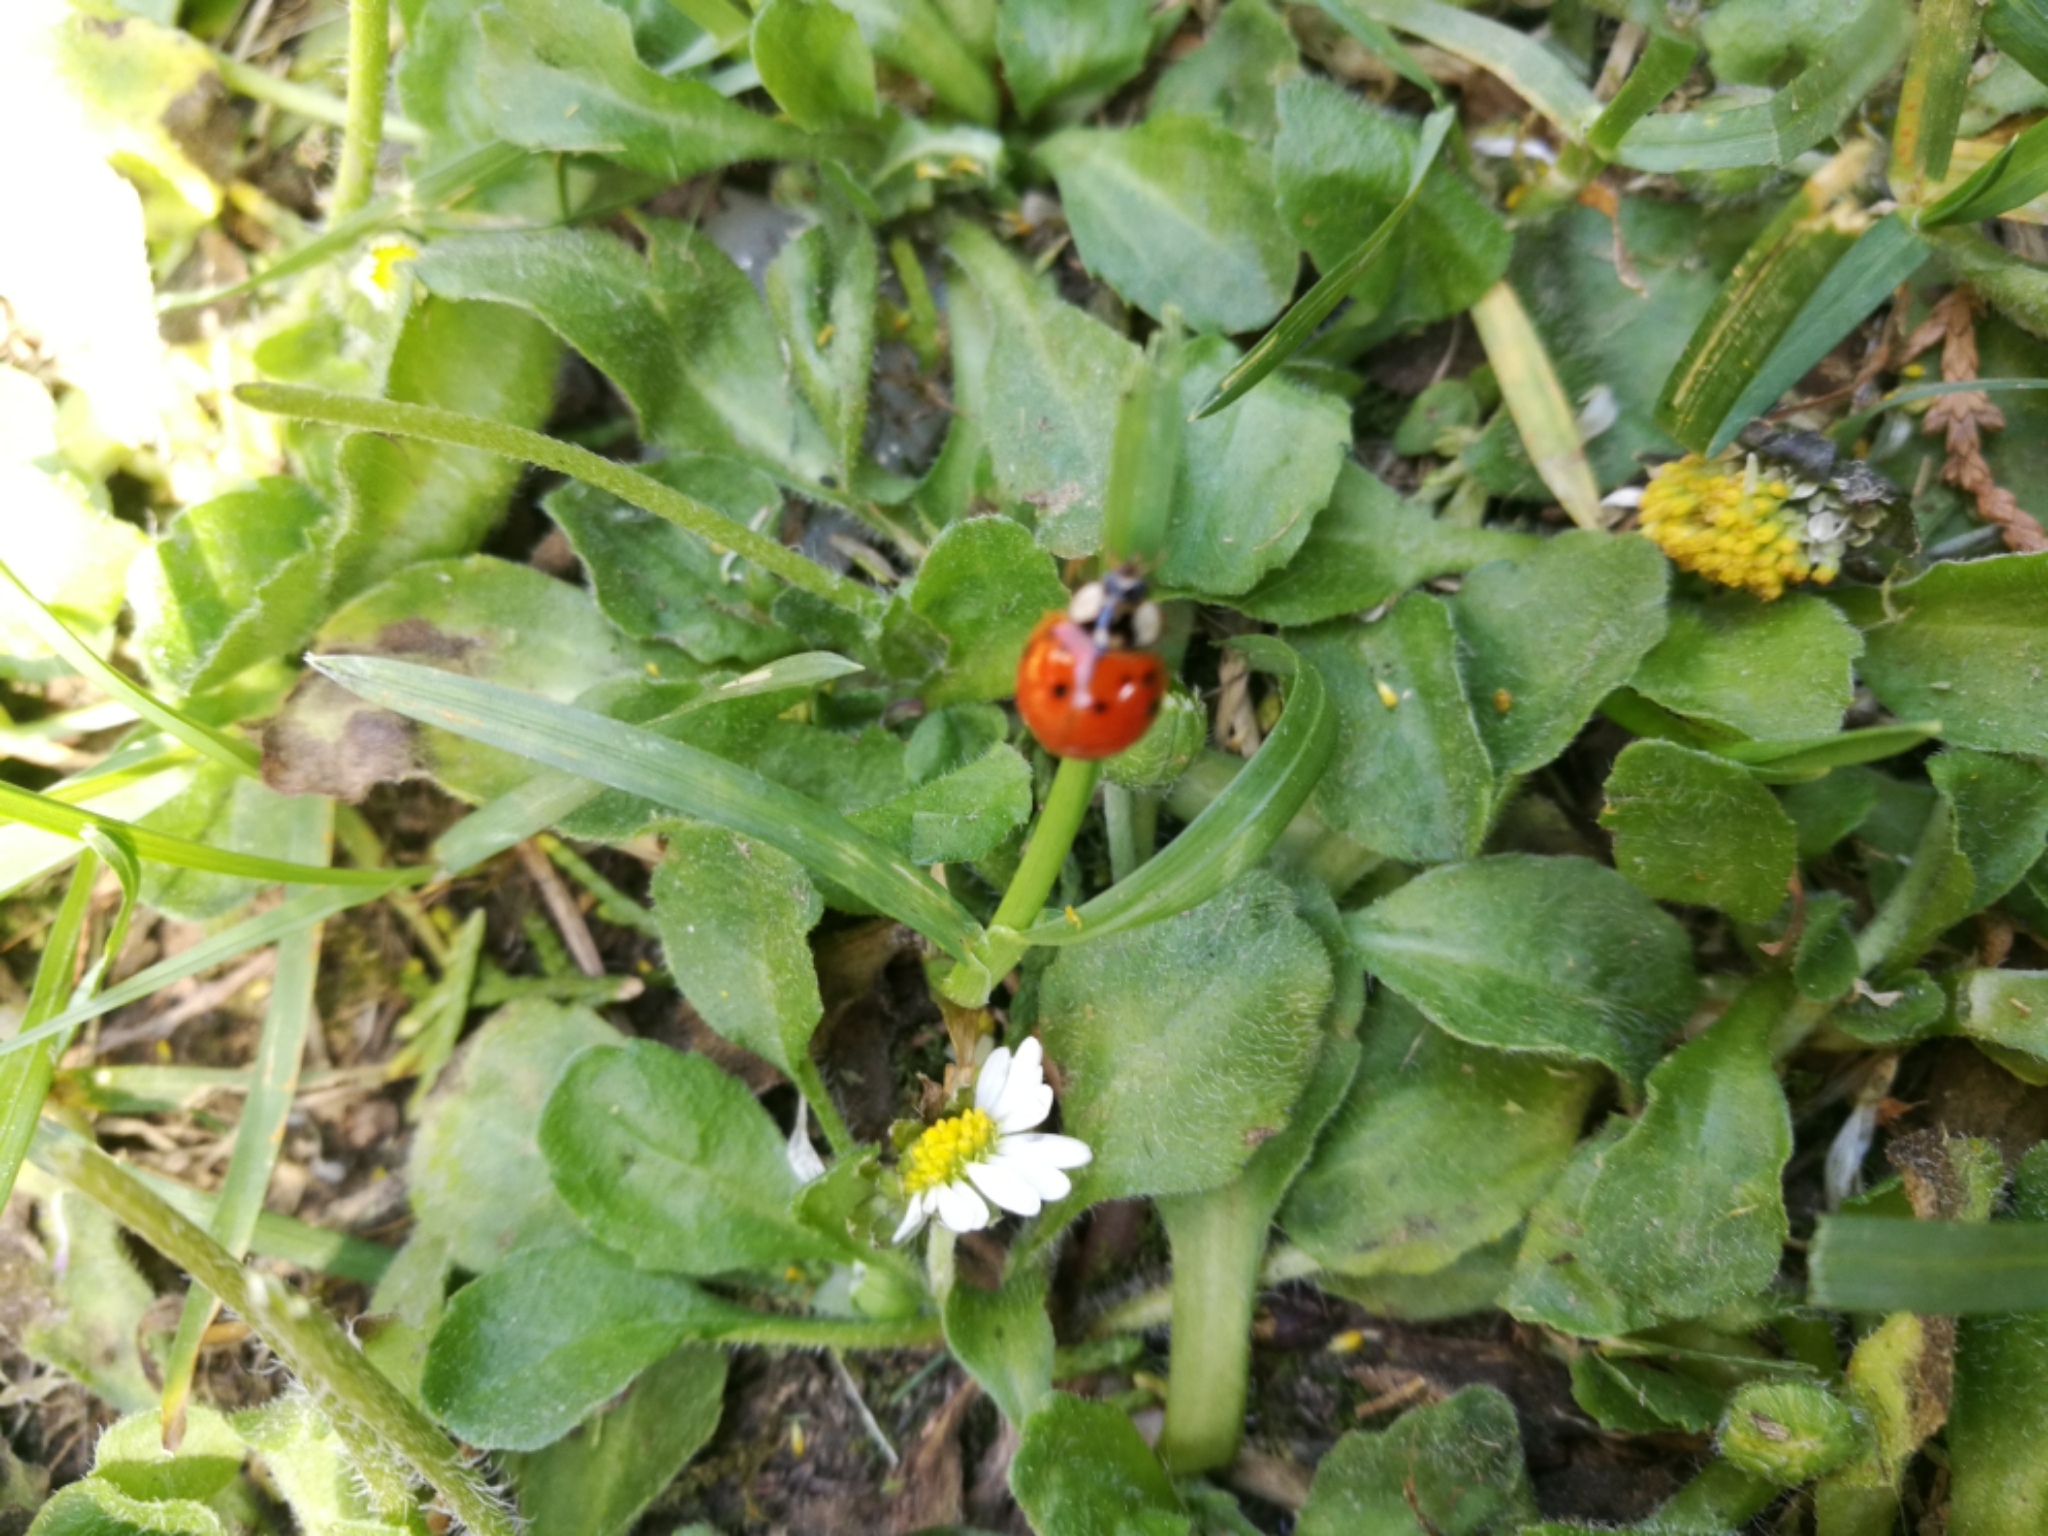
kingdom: Animalia
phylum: Arthropoda
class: Insecta
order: Coleoptera
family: Coccinellidae
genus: Harmonia
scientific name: Harmonia axyridis
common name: Harlequin ladybird
